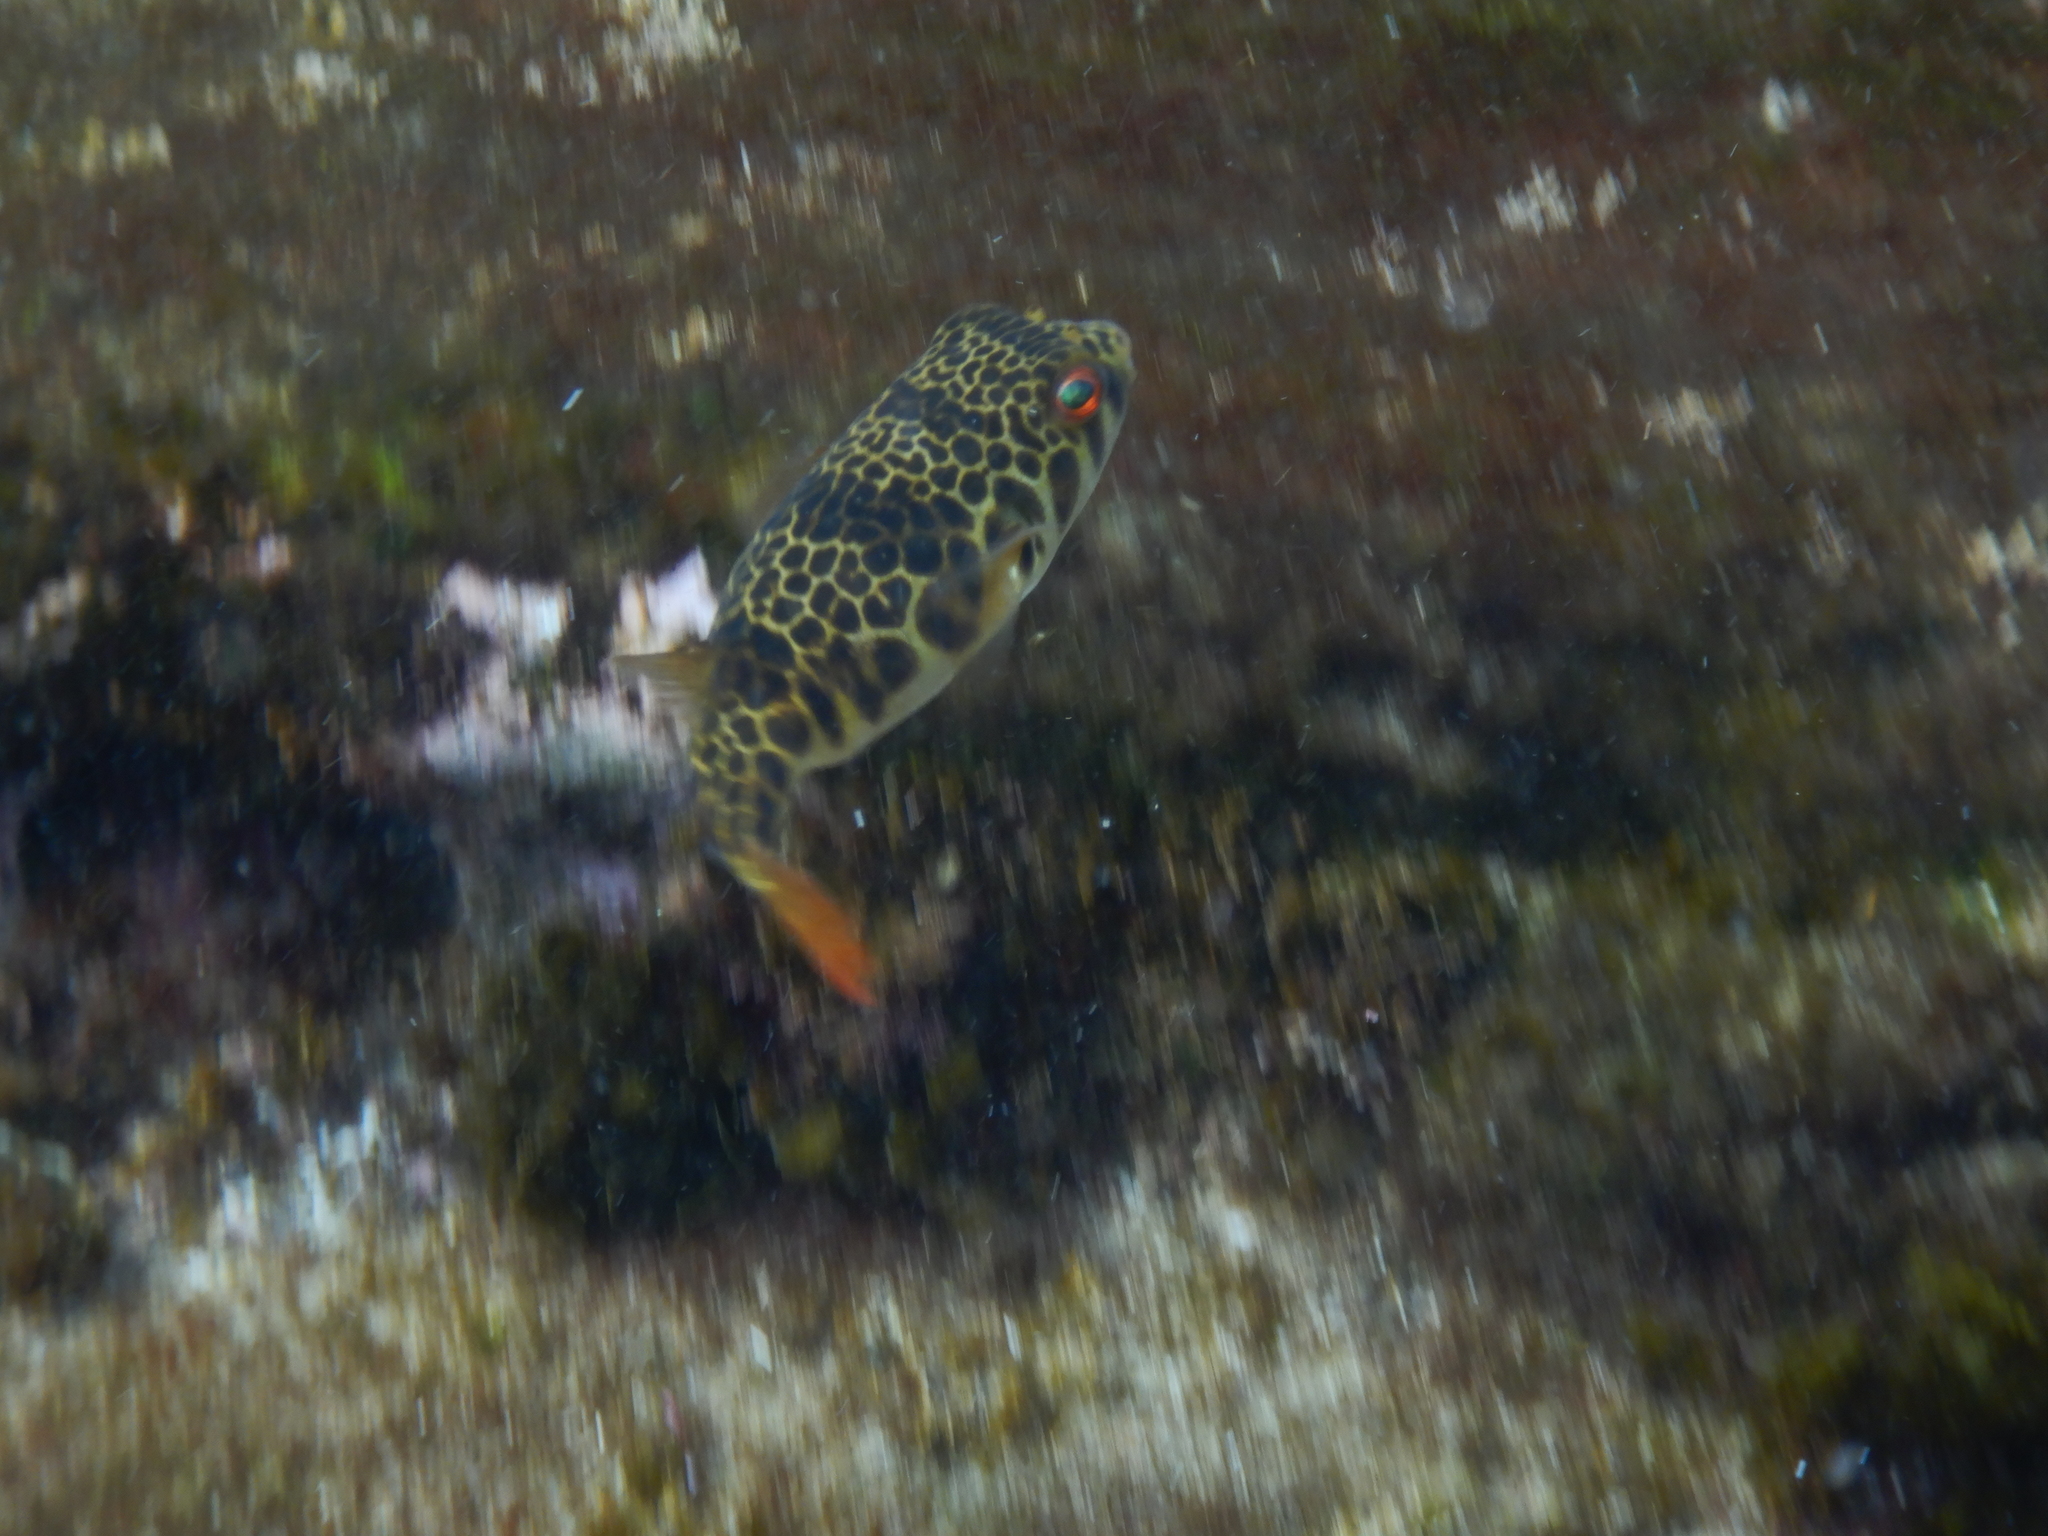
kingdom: Animalia
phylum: Chordata
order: Tetraodontiformes
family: Tetraodontidae
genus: Tetractenos
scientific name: Tetractenos glaber
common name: Smooth toadfish
